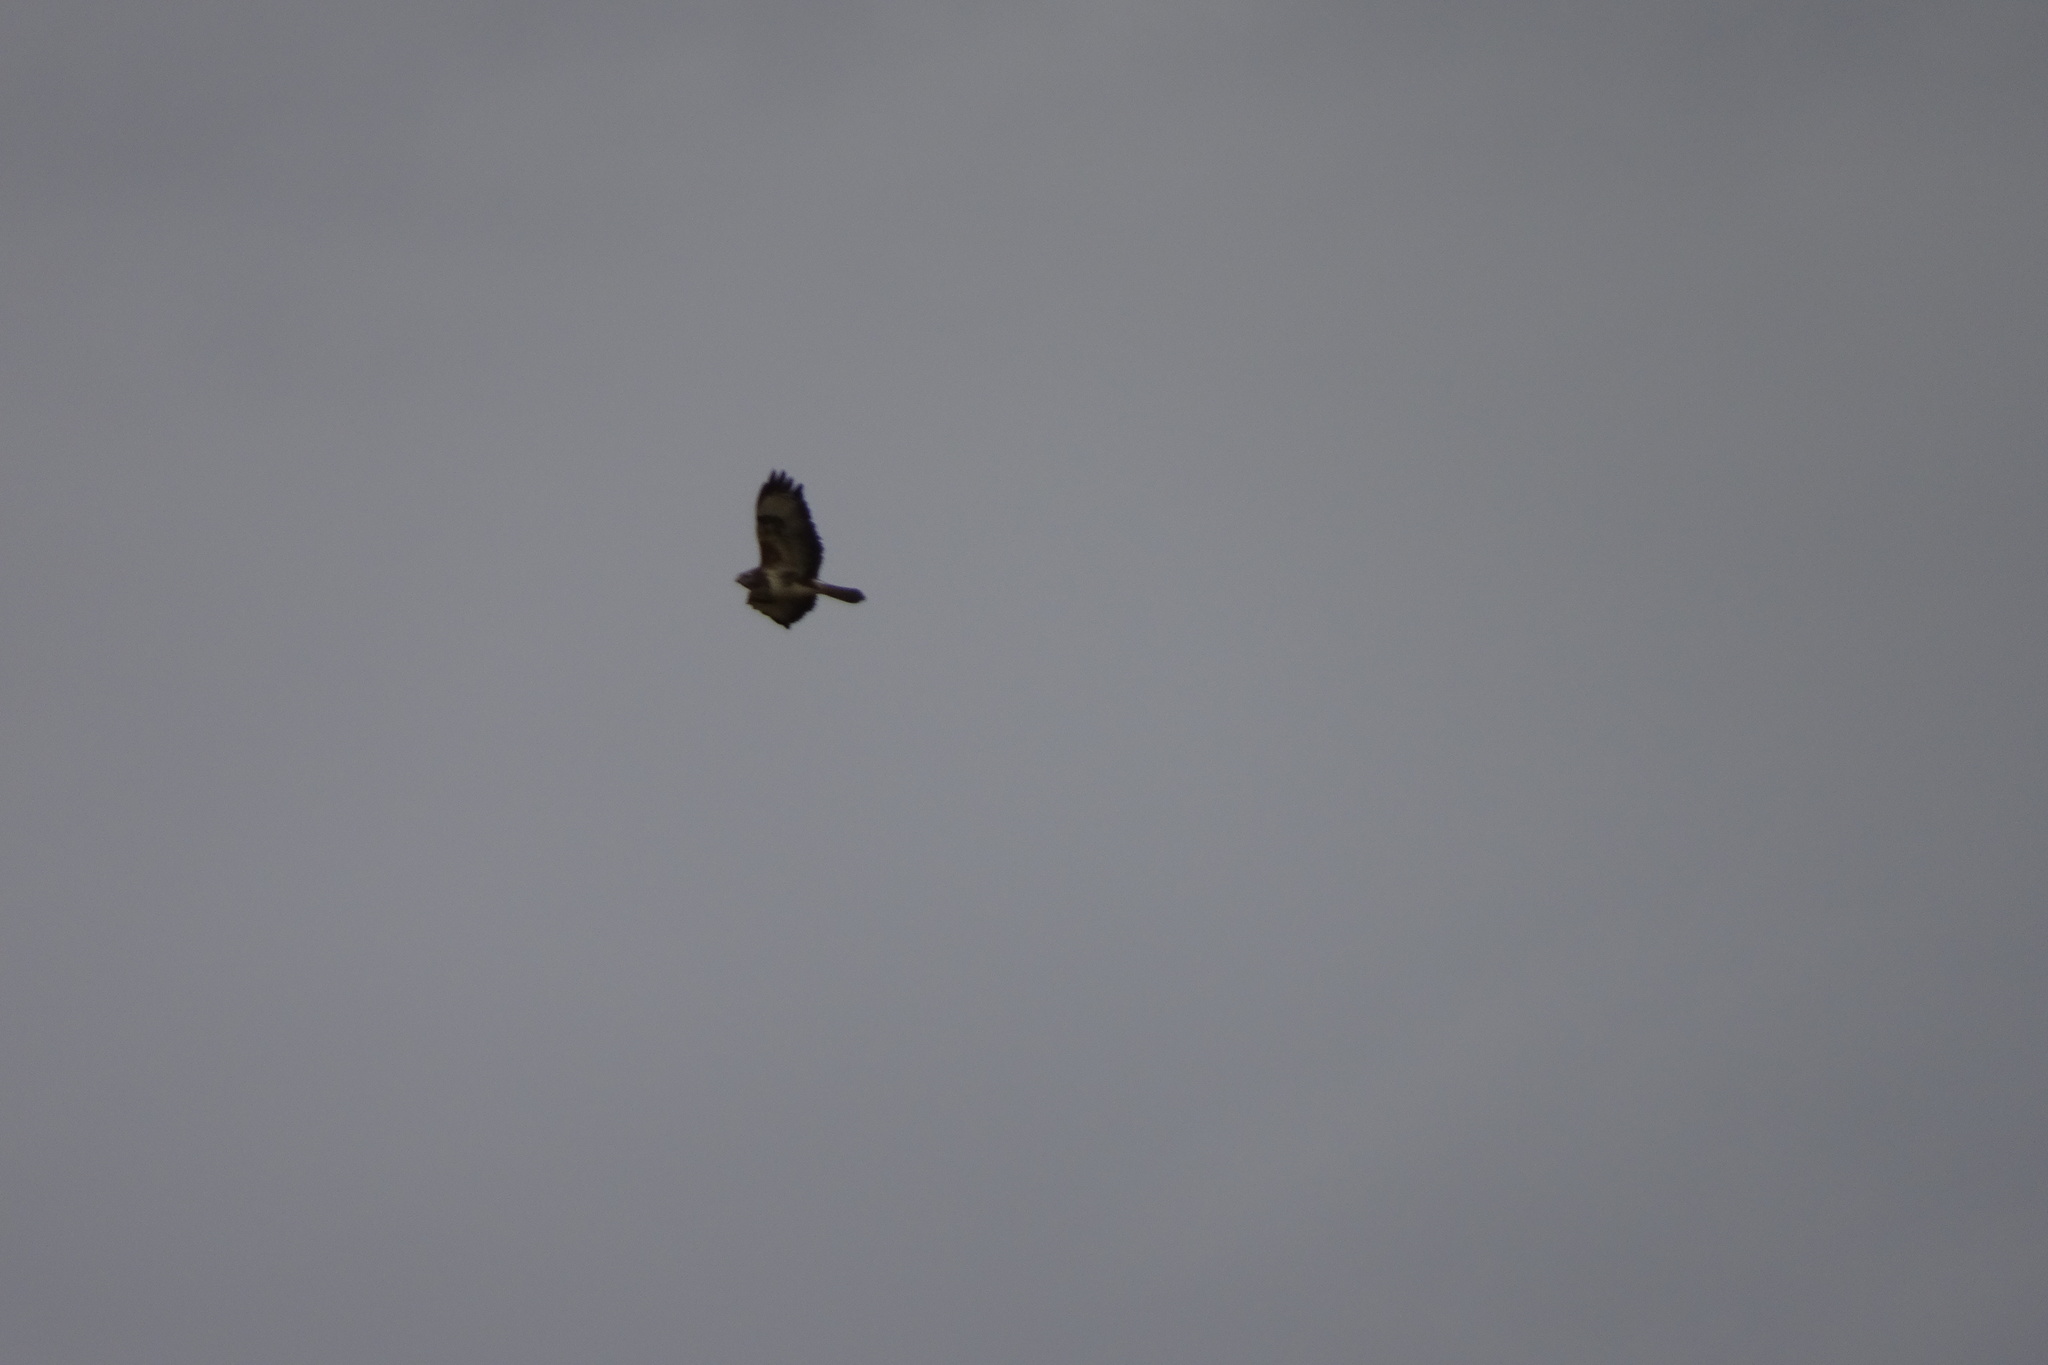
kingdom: Animalia
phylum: Chordata
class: Aves
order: Accipitriformes
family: Accipitridae
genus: Buteo
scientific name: Buteo buteo
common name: Common buzzard
